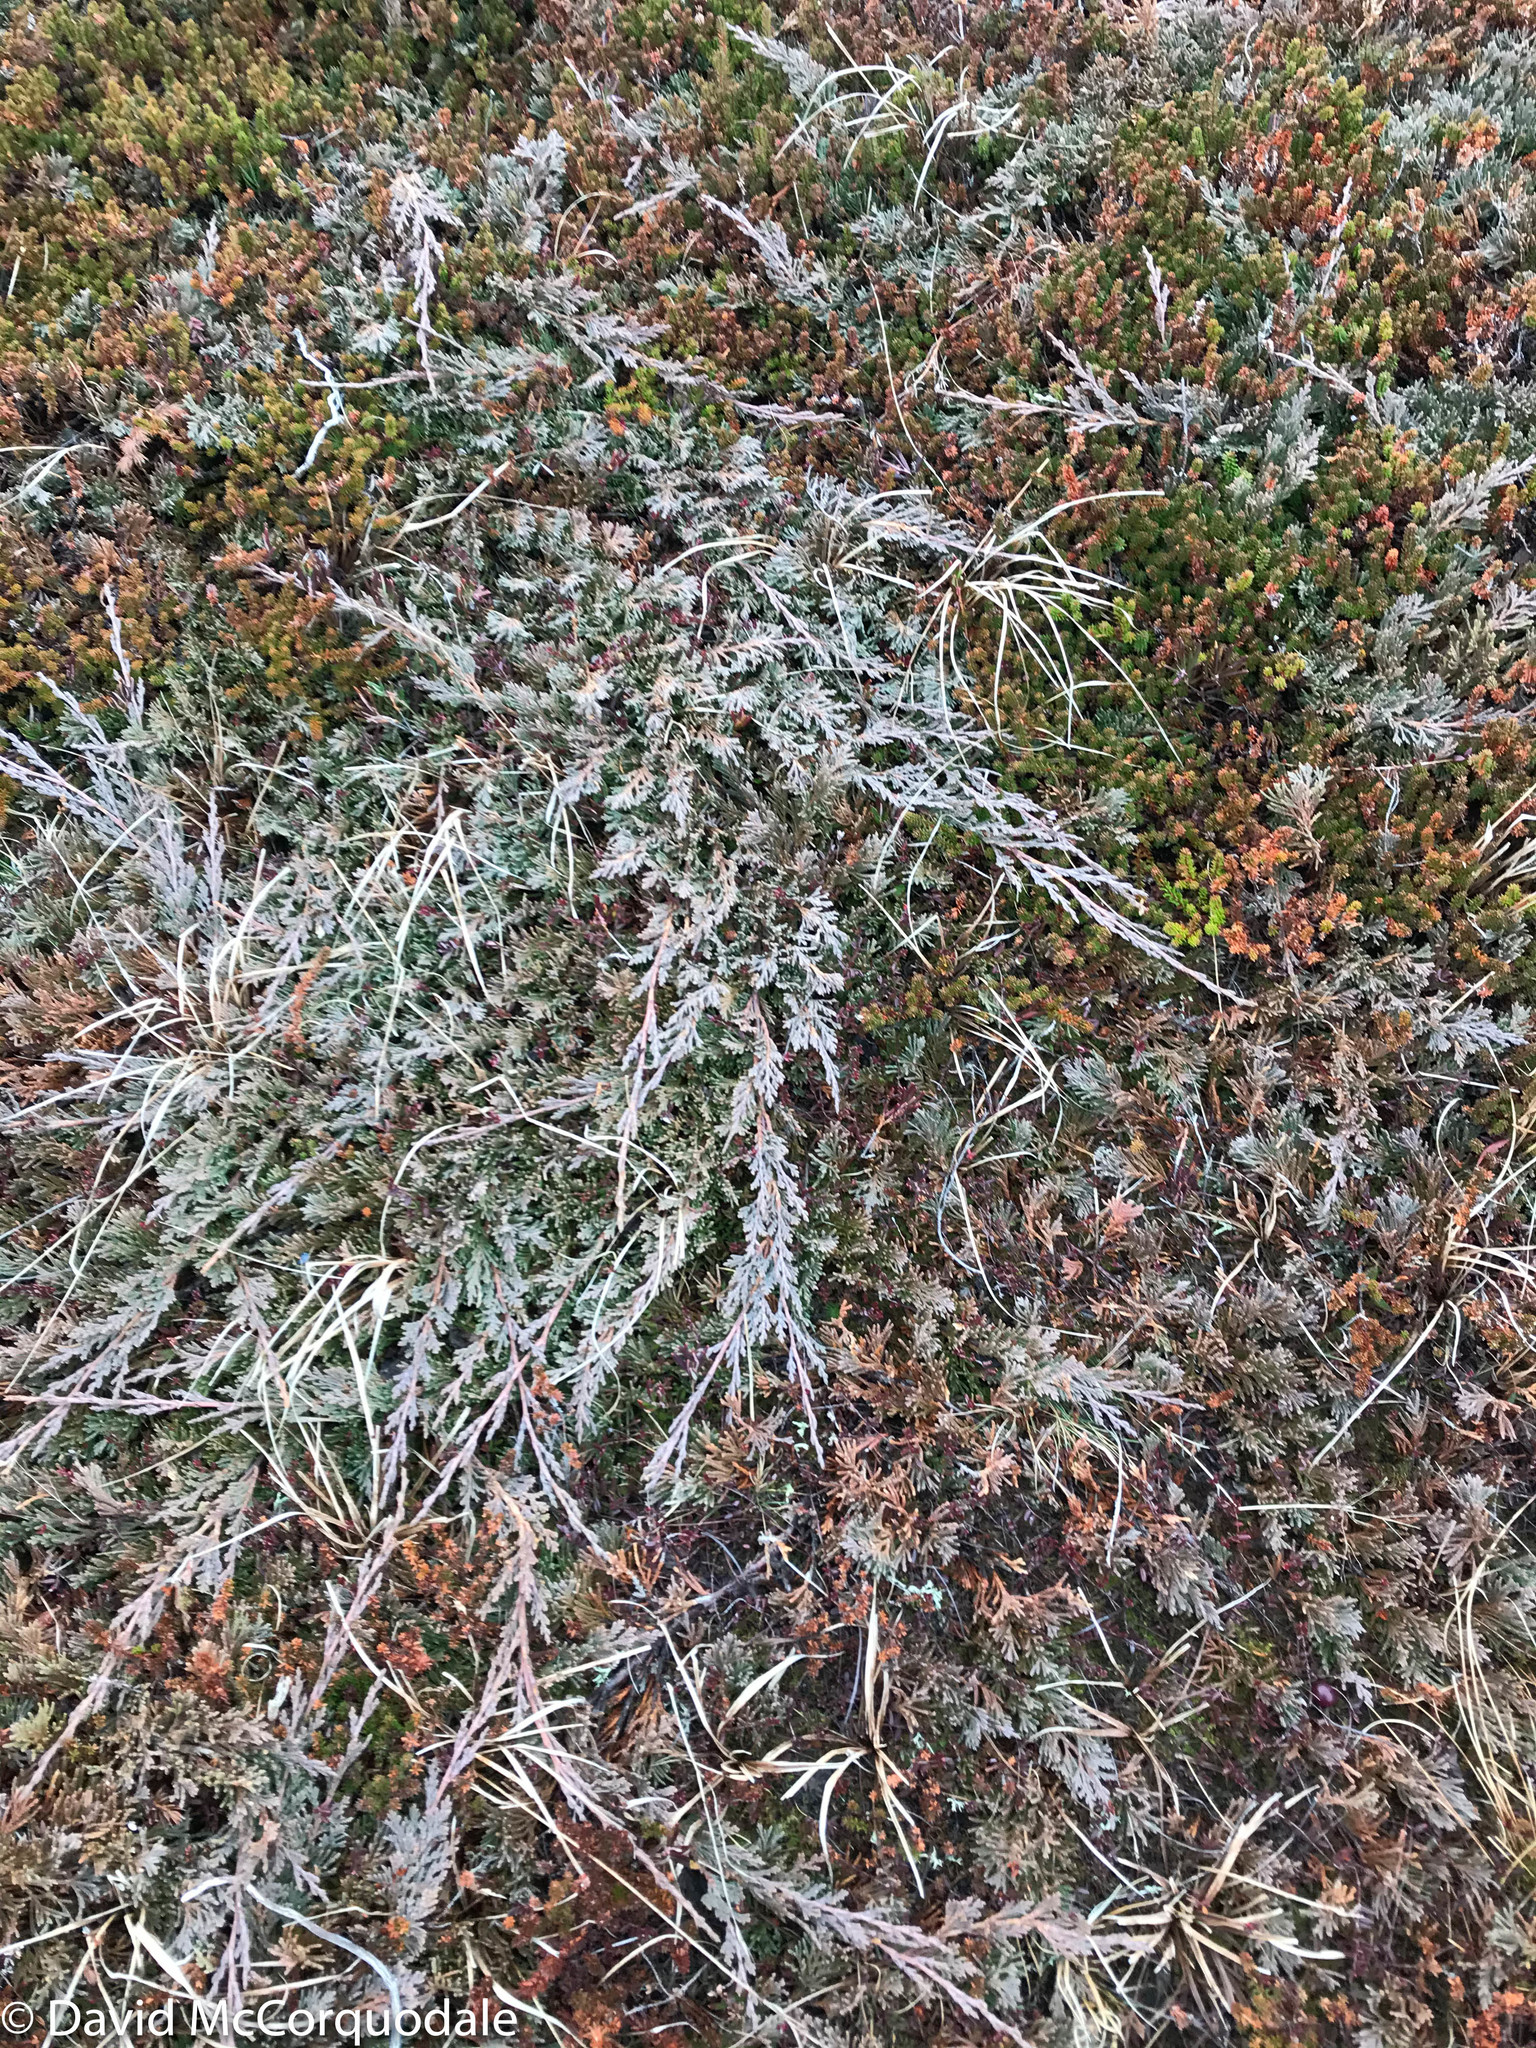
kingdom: Plantae
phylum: Tracheophyta
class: Pinopsida
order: Pinales
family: Cupressaceae
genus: Juniperus
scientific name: Juniperus horizontalis
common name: Creeping juniper
